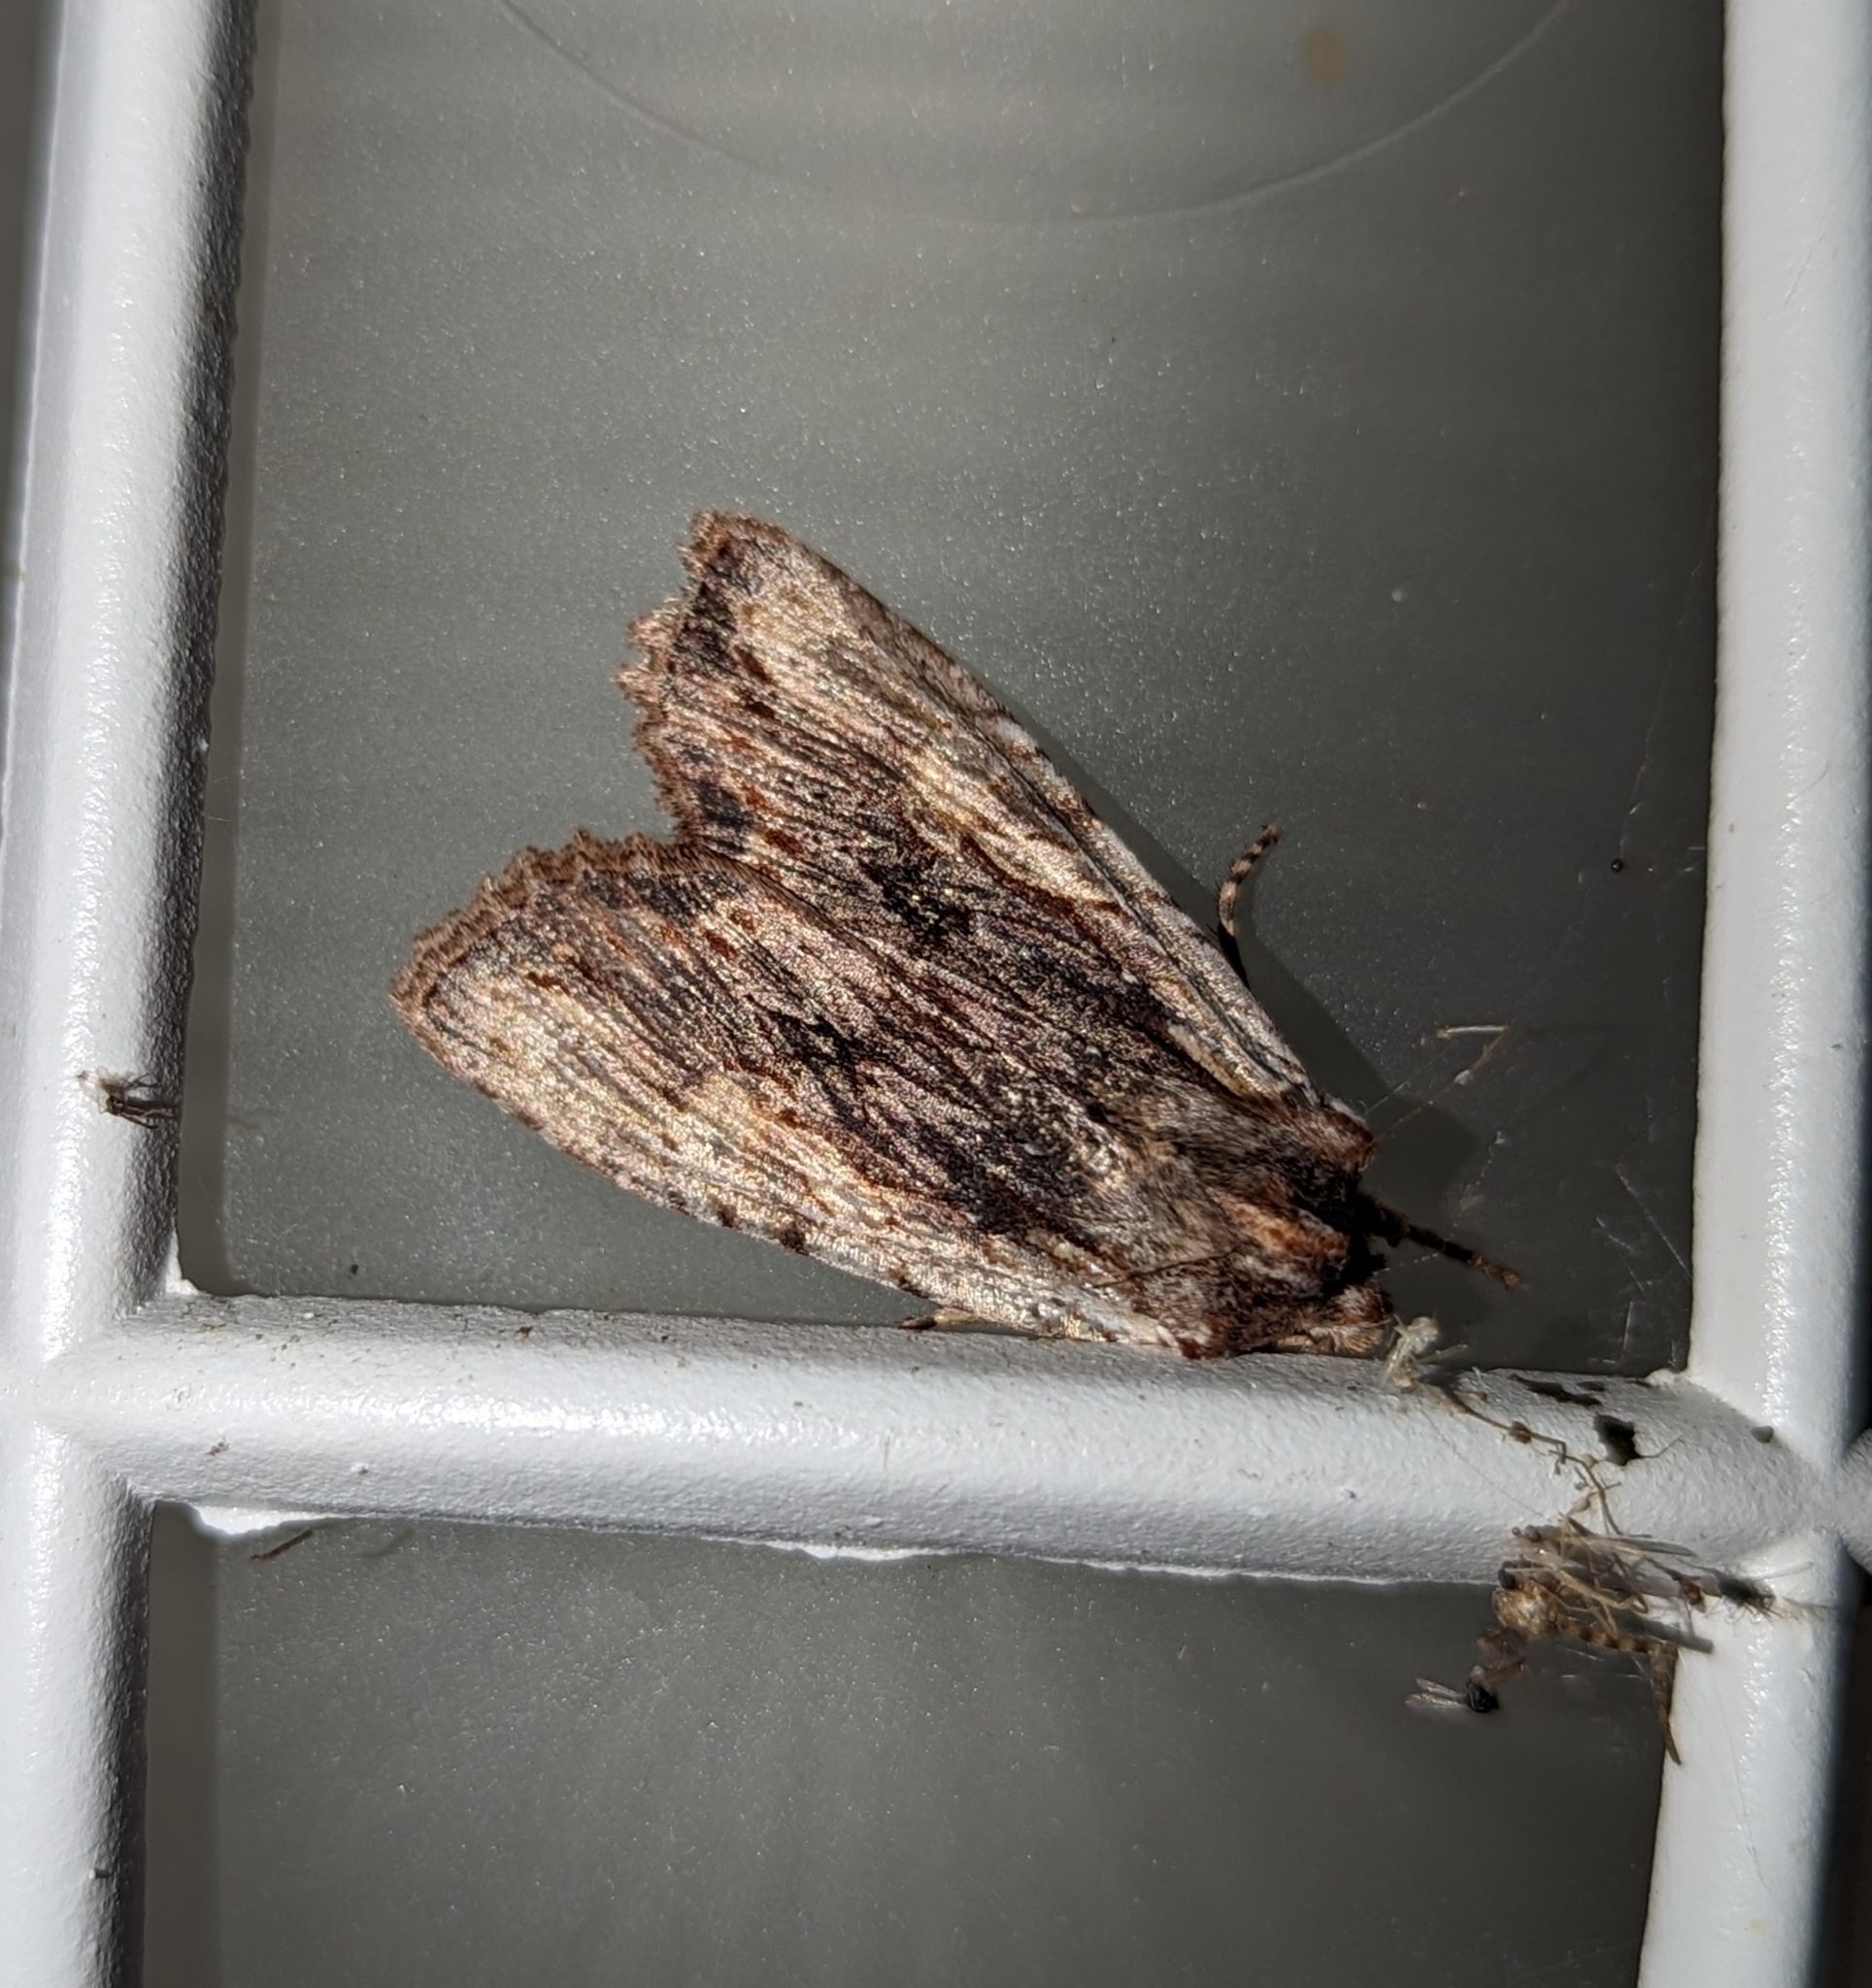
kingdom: Animalia
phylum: Arthropoda
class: Insecta
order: Lepidoptera
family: Noctuidae
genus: Lithophane
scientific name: Lithophane petulca
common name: Wanton pinion
